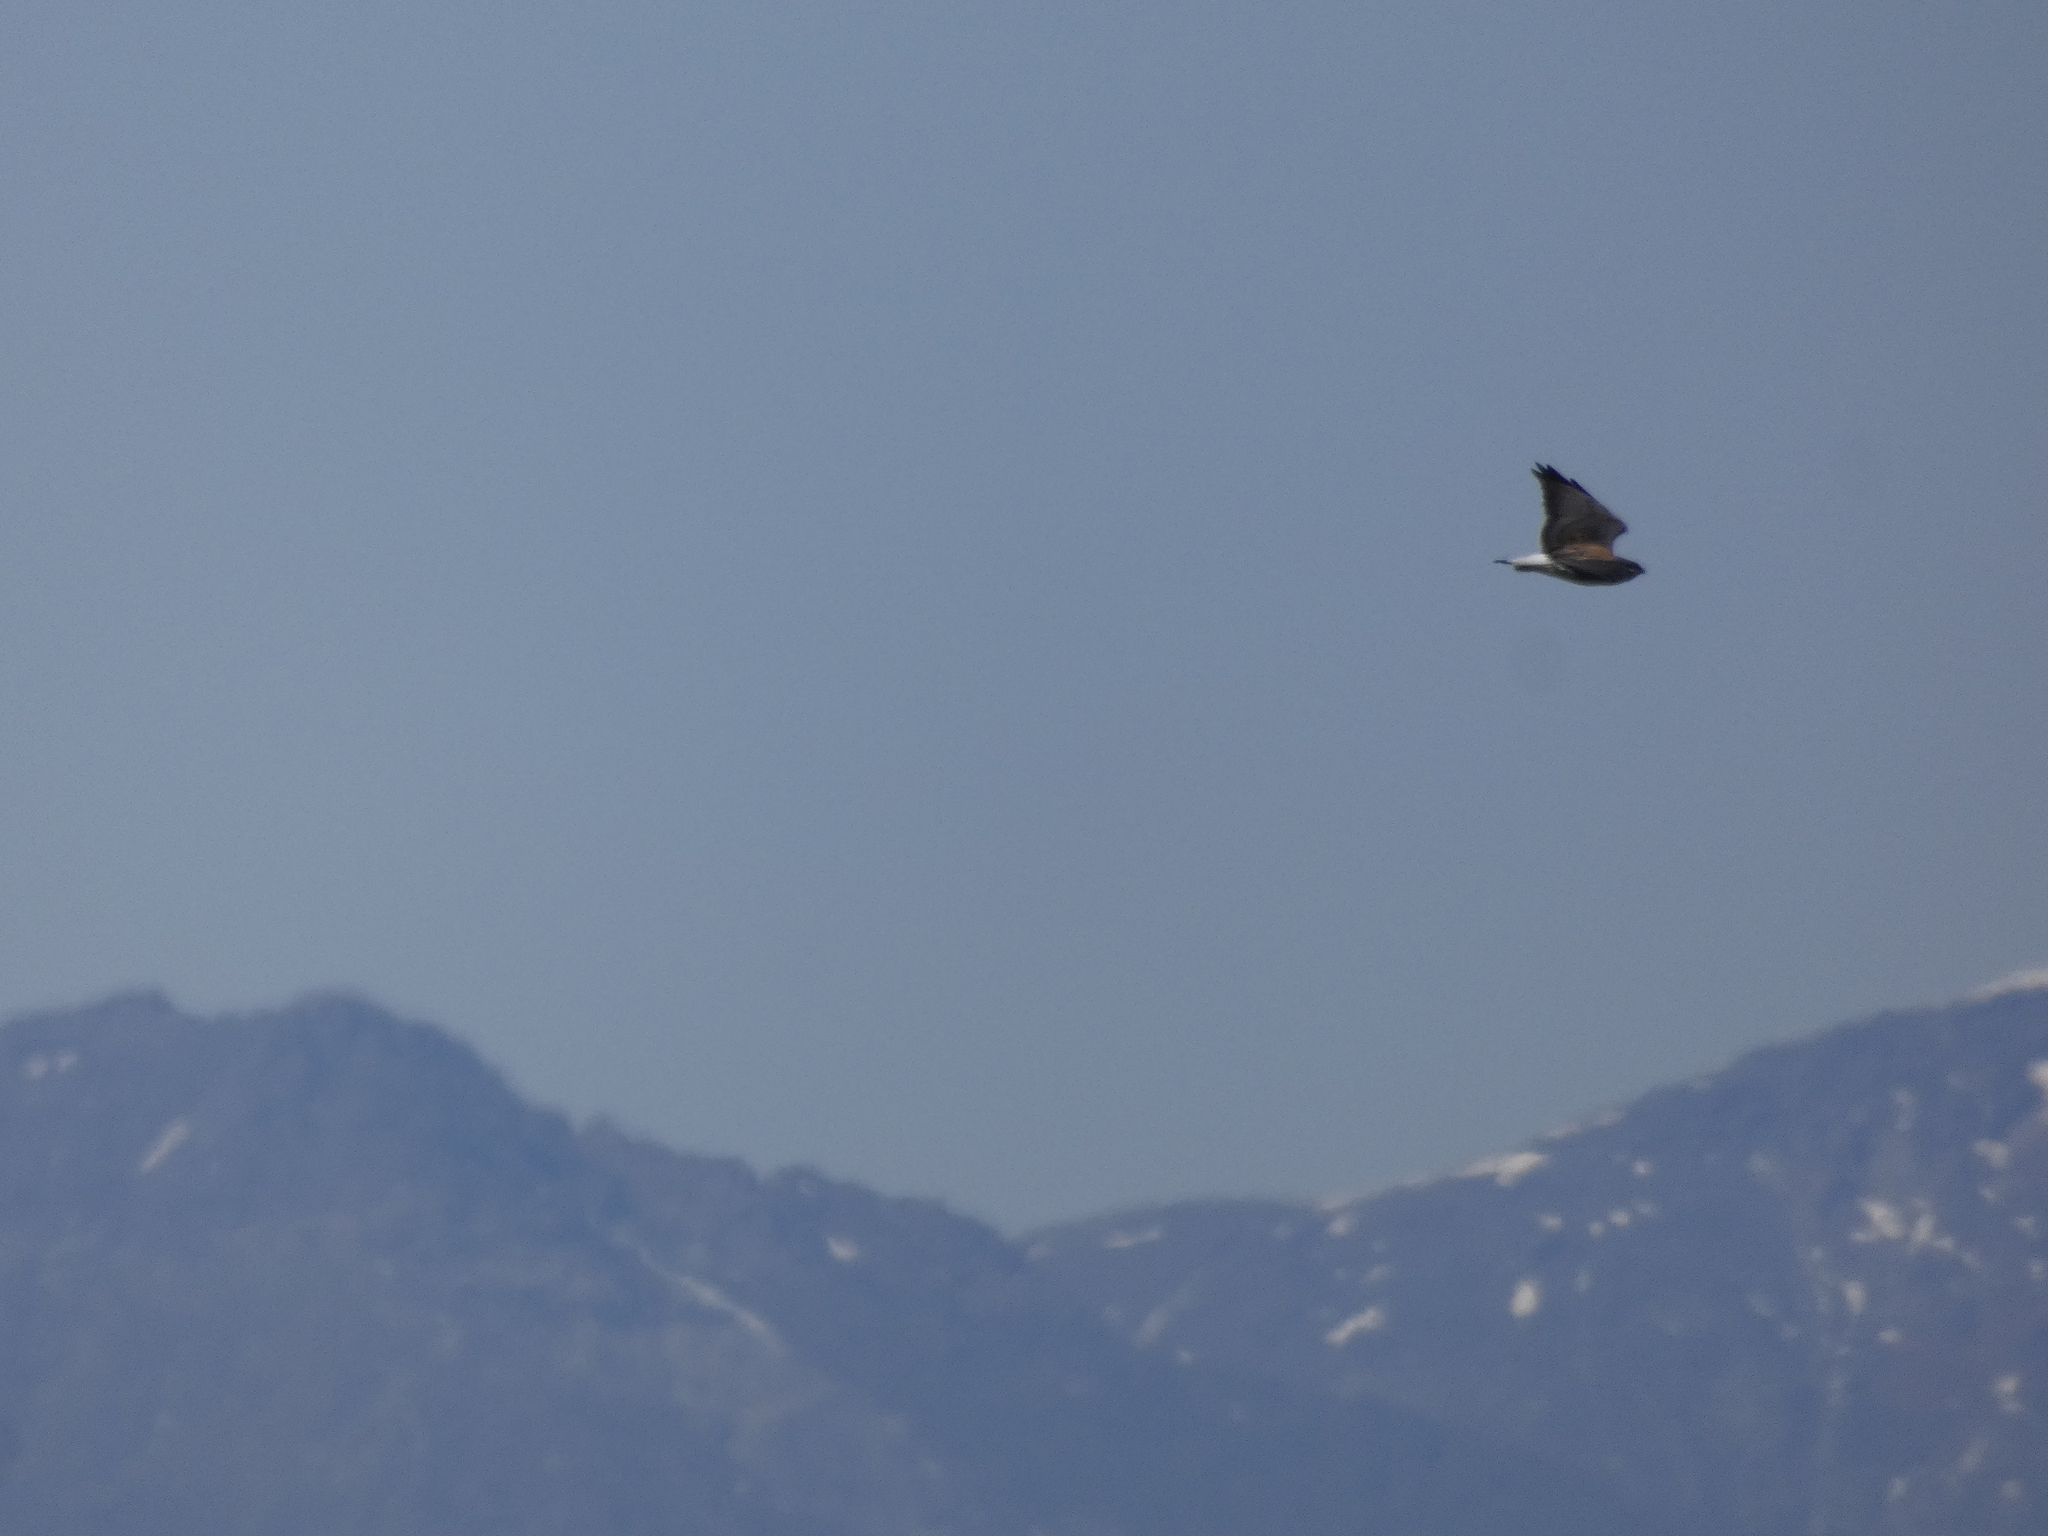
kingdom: Animalia
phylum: Chordata
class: Aves
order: Accipitriformes
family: Accipitridae
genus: Buteo
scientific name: Buteo polyosoma
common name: Variable hawk
